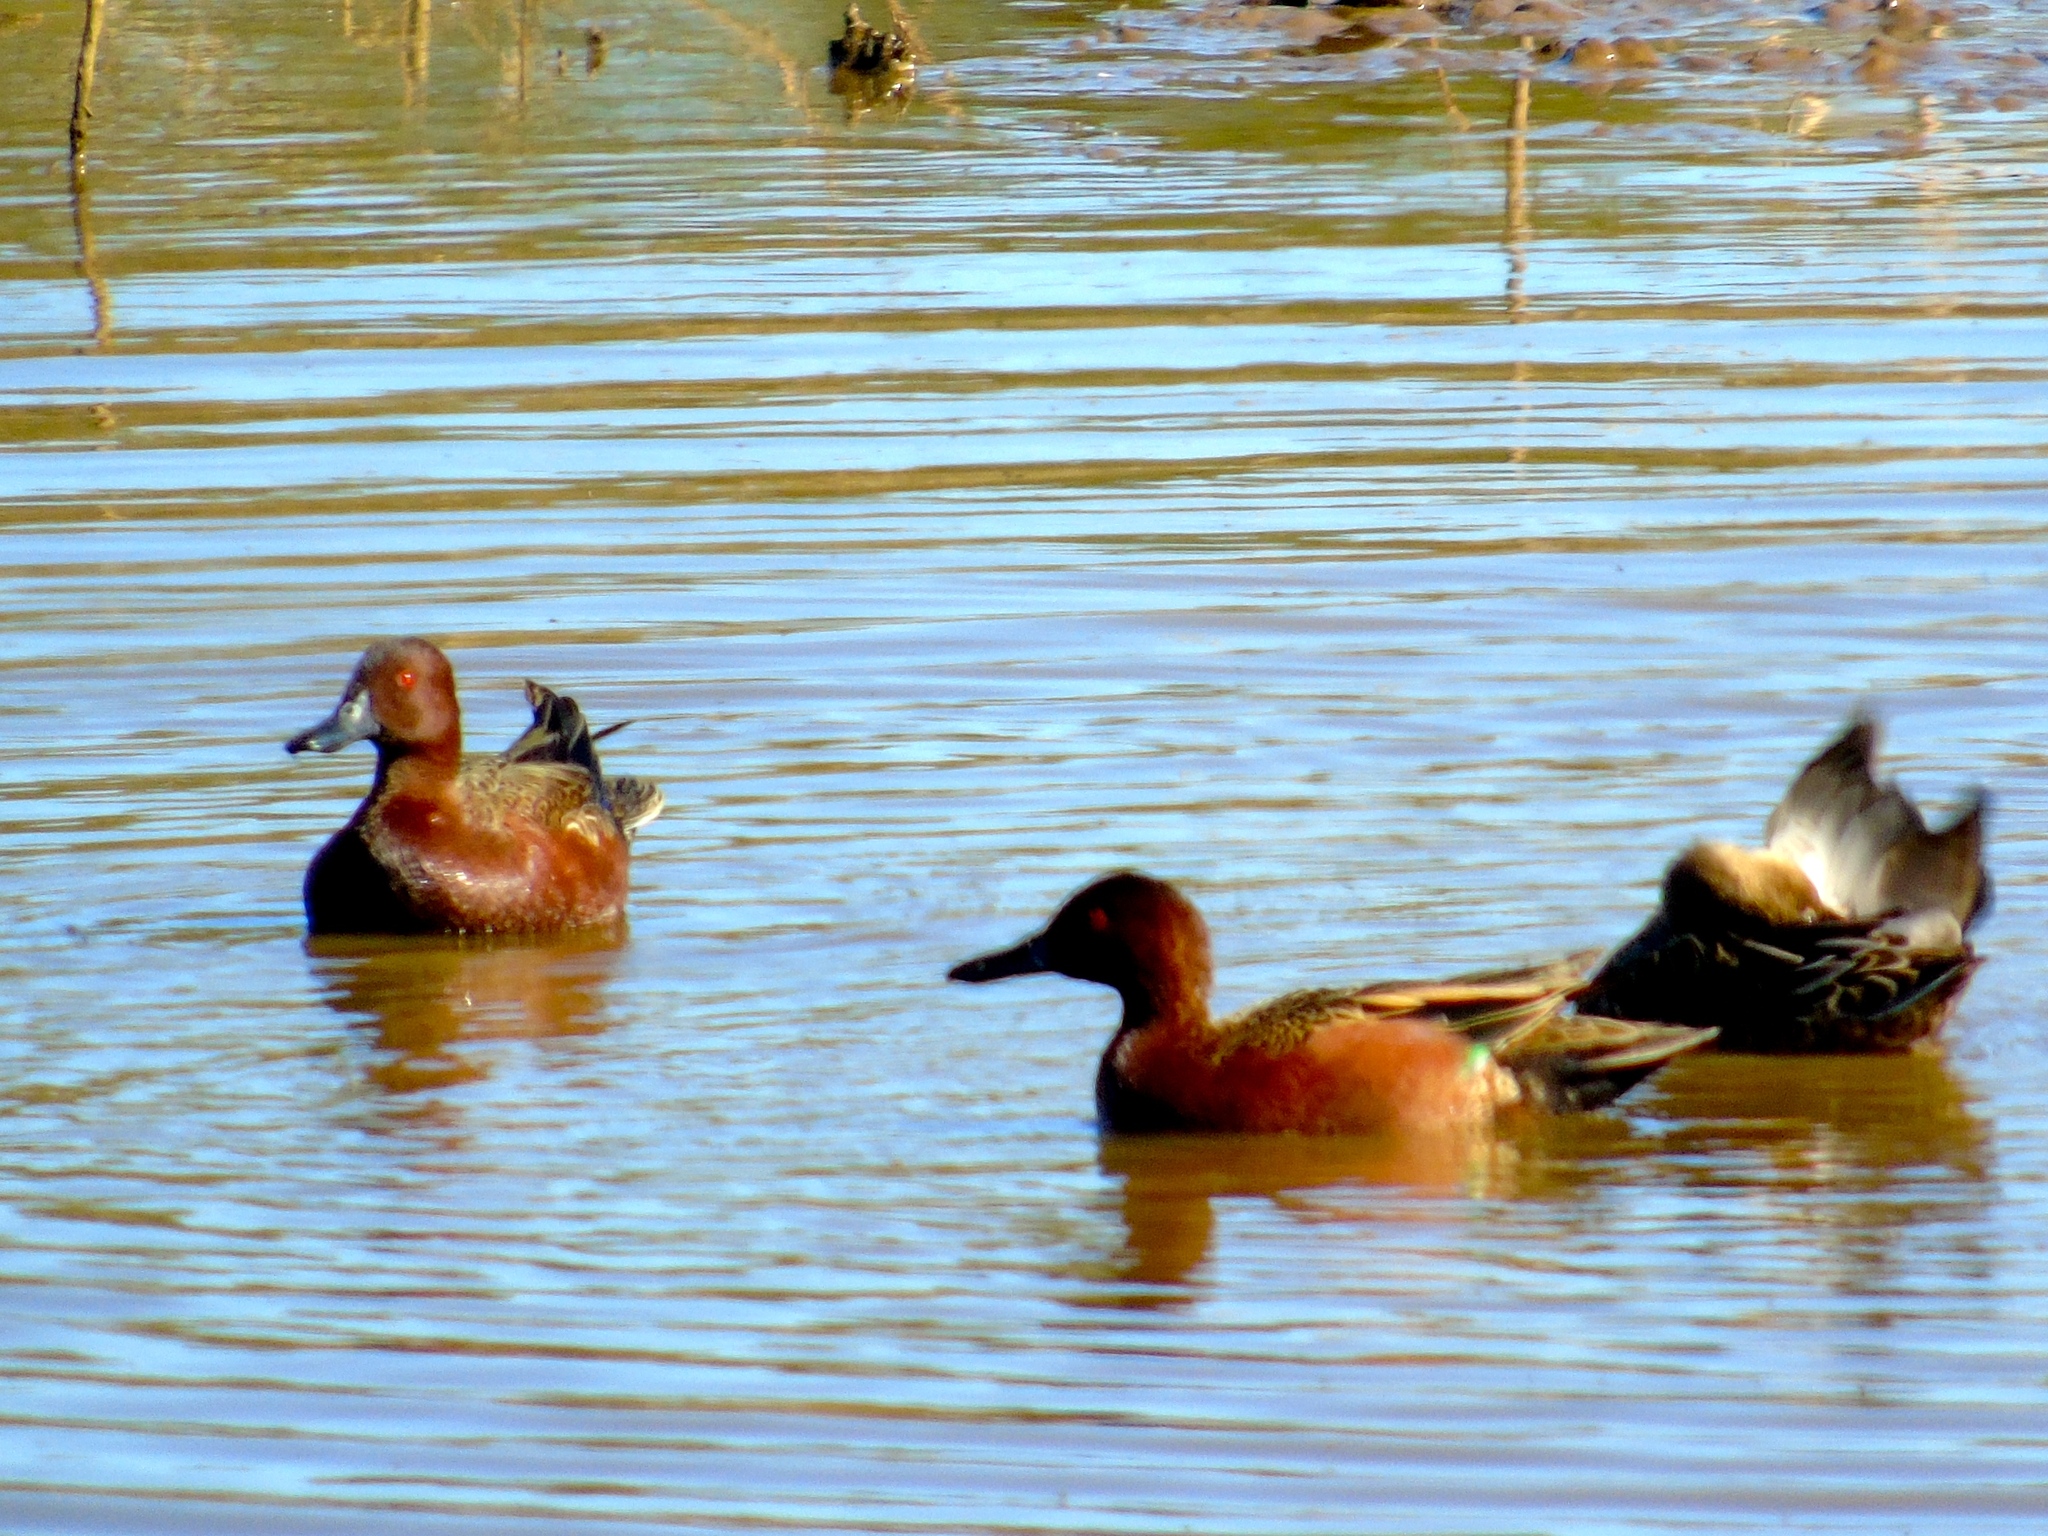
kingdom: Animalia
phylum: Chordata
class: Aves
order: Anseriformes
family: Anatidae
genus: Spatula
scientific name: Spatula cyanoptera
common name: Cinnamon teal
